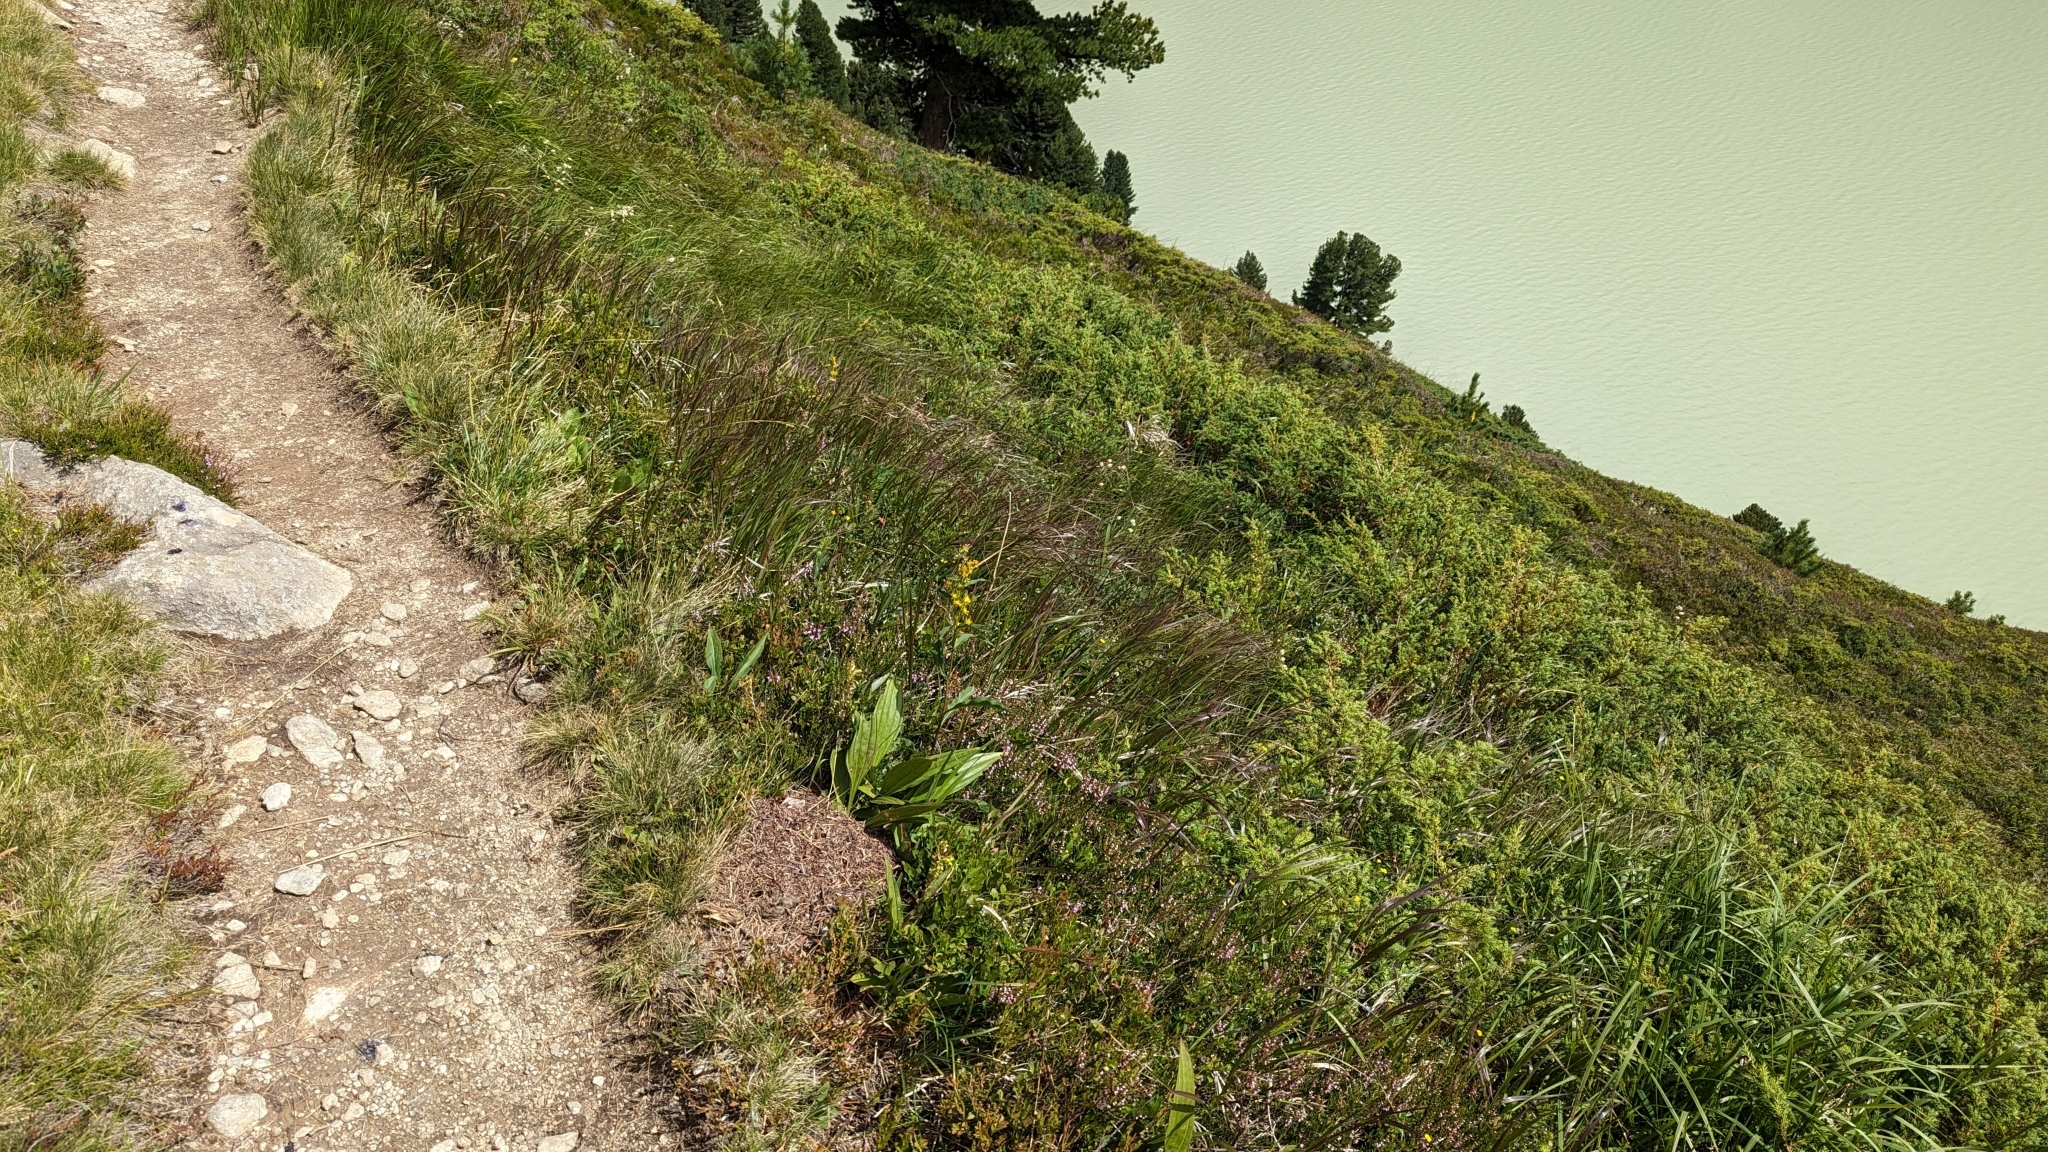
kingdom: Animalia
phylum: Arthropoda
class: Insecta
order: Hymenoptera
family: Formicidae
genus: Formica
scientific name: Formica
